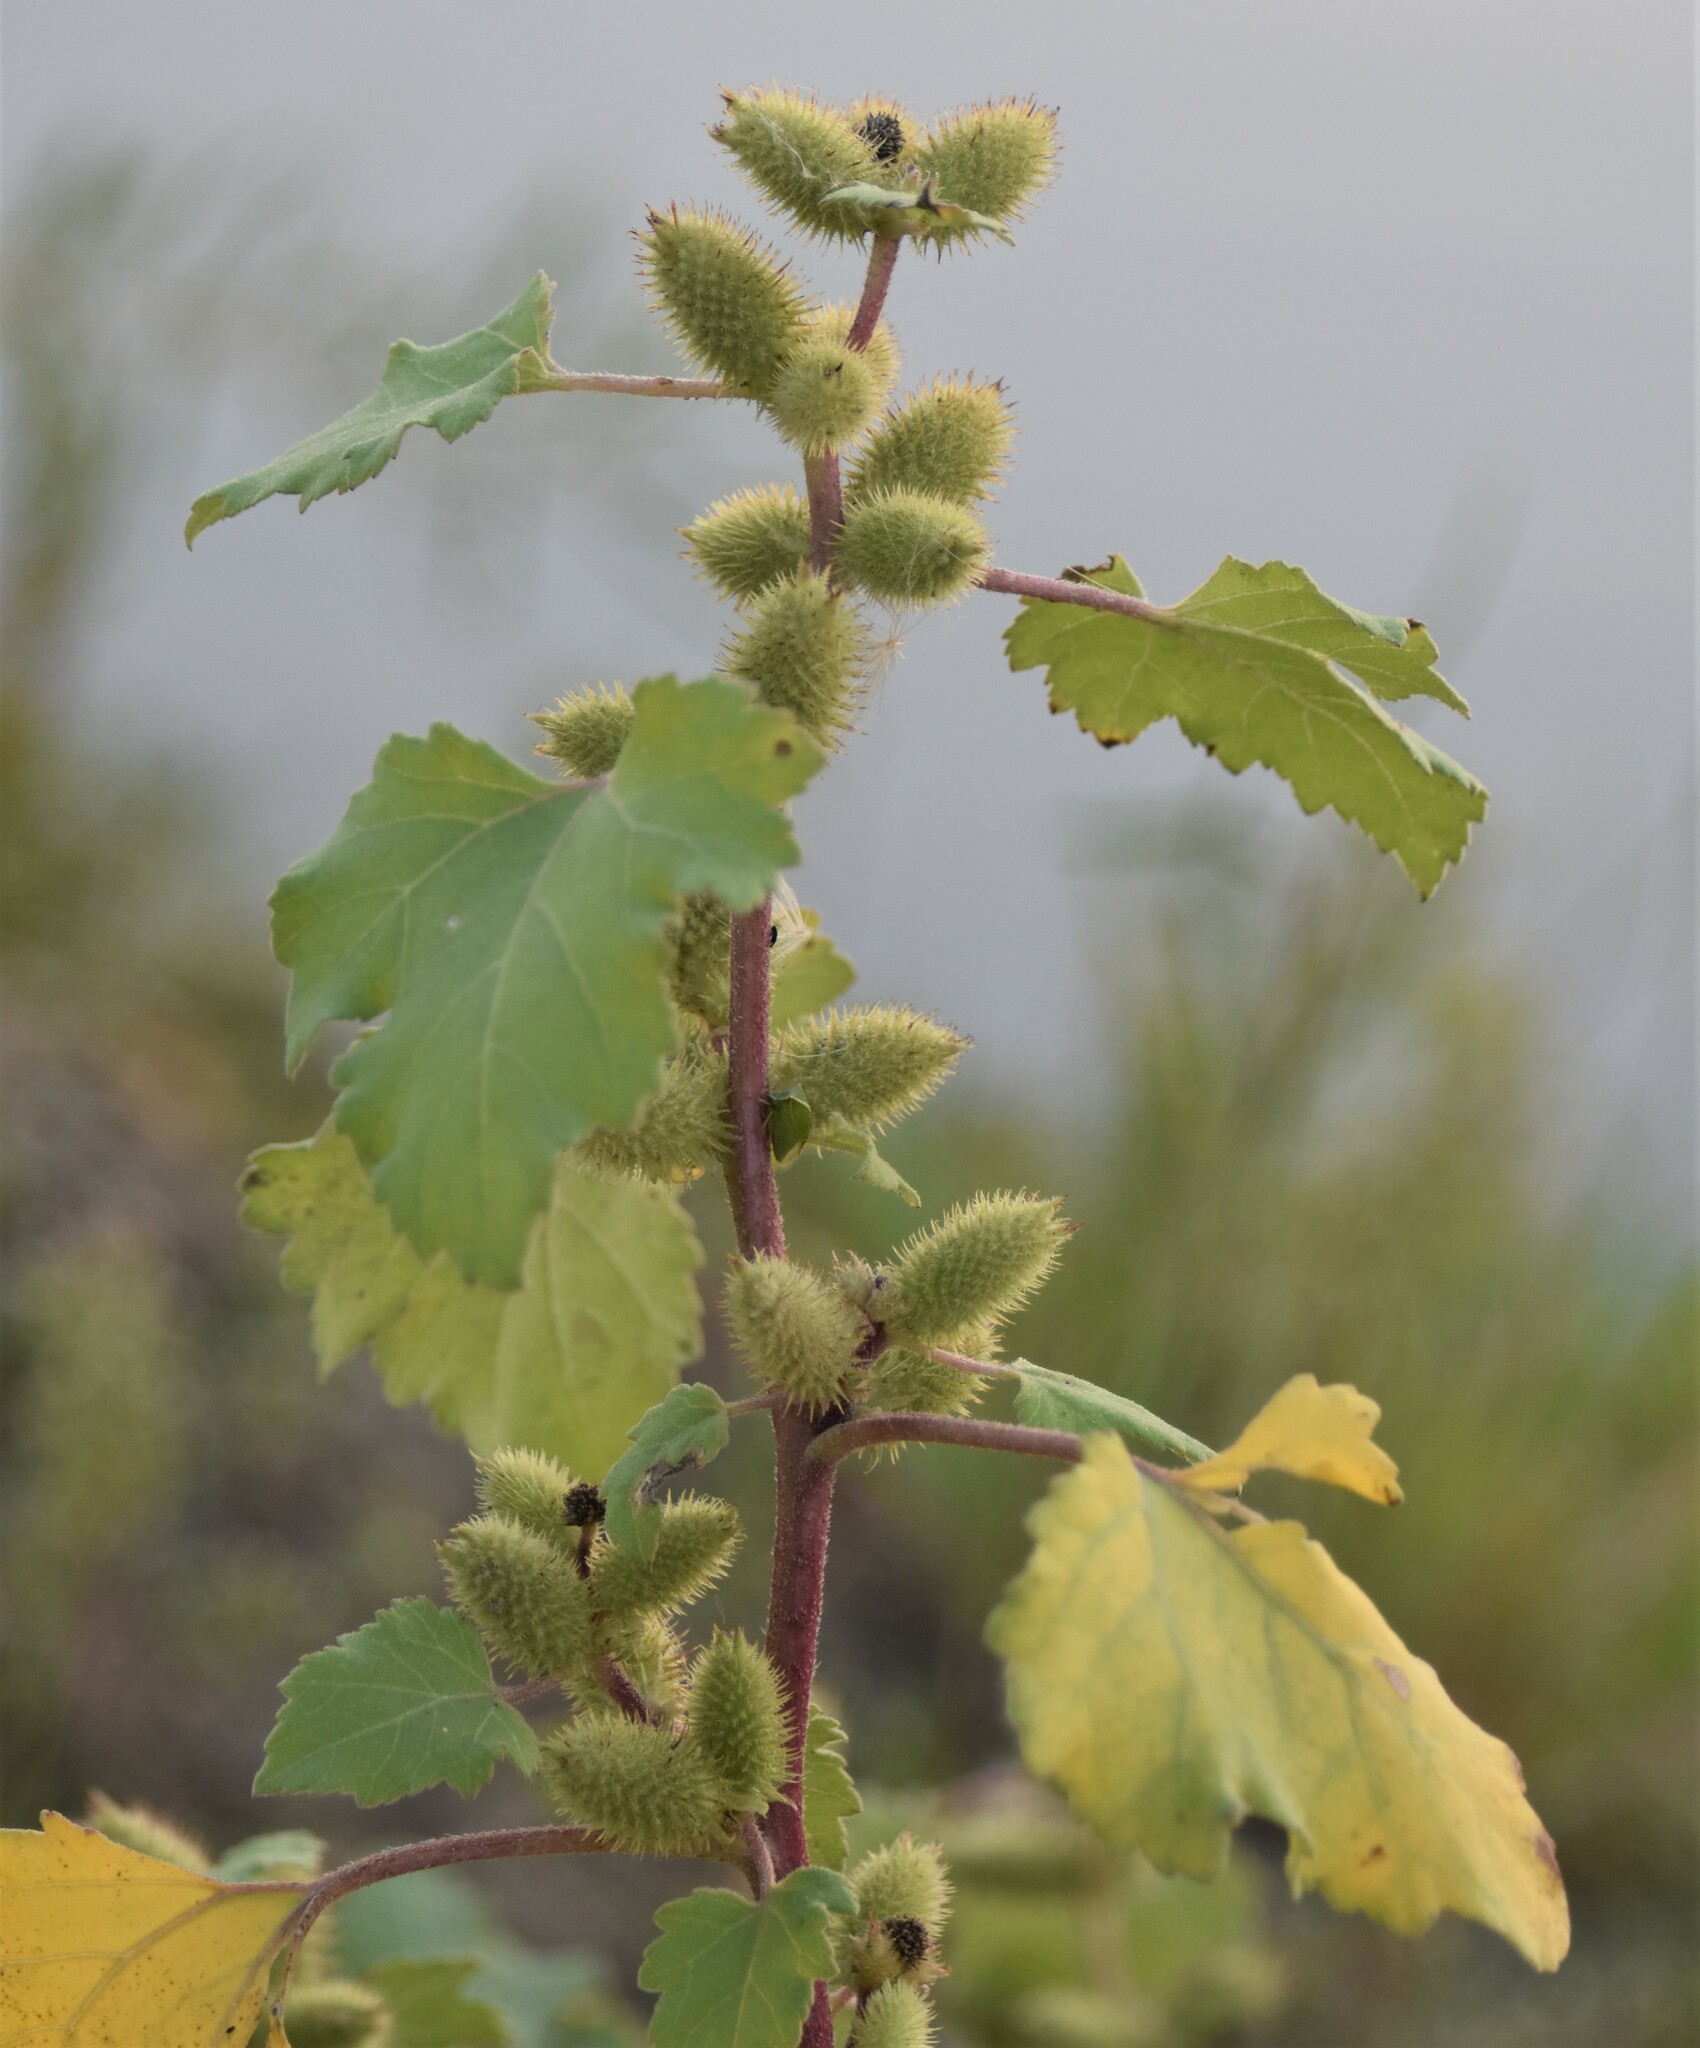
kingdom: Plantae
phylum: Tracheophyta
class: Magnoliopsida
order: Asterales
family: Asteraceae
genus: Xanthium
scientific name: Xanthium strumarium
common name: Rough cocklebur
